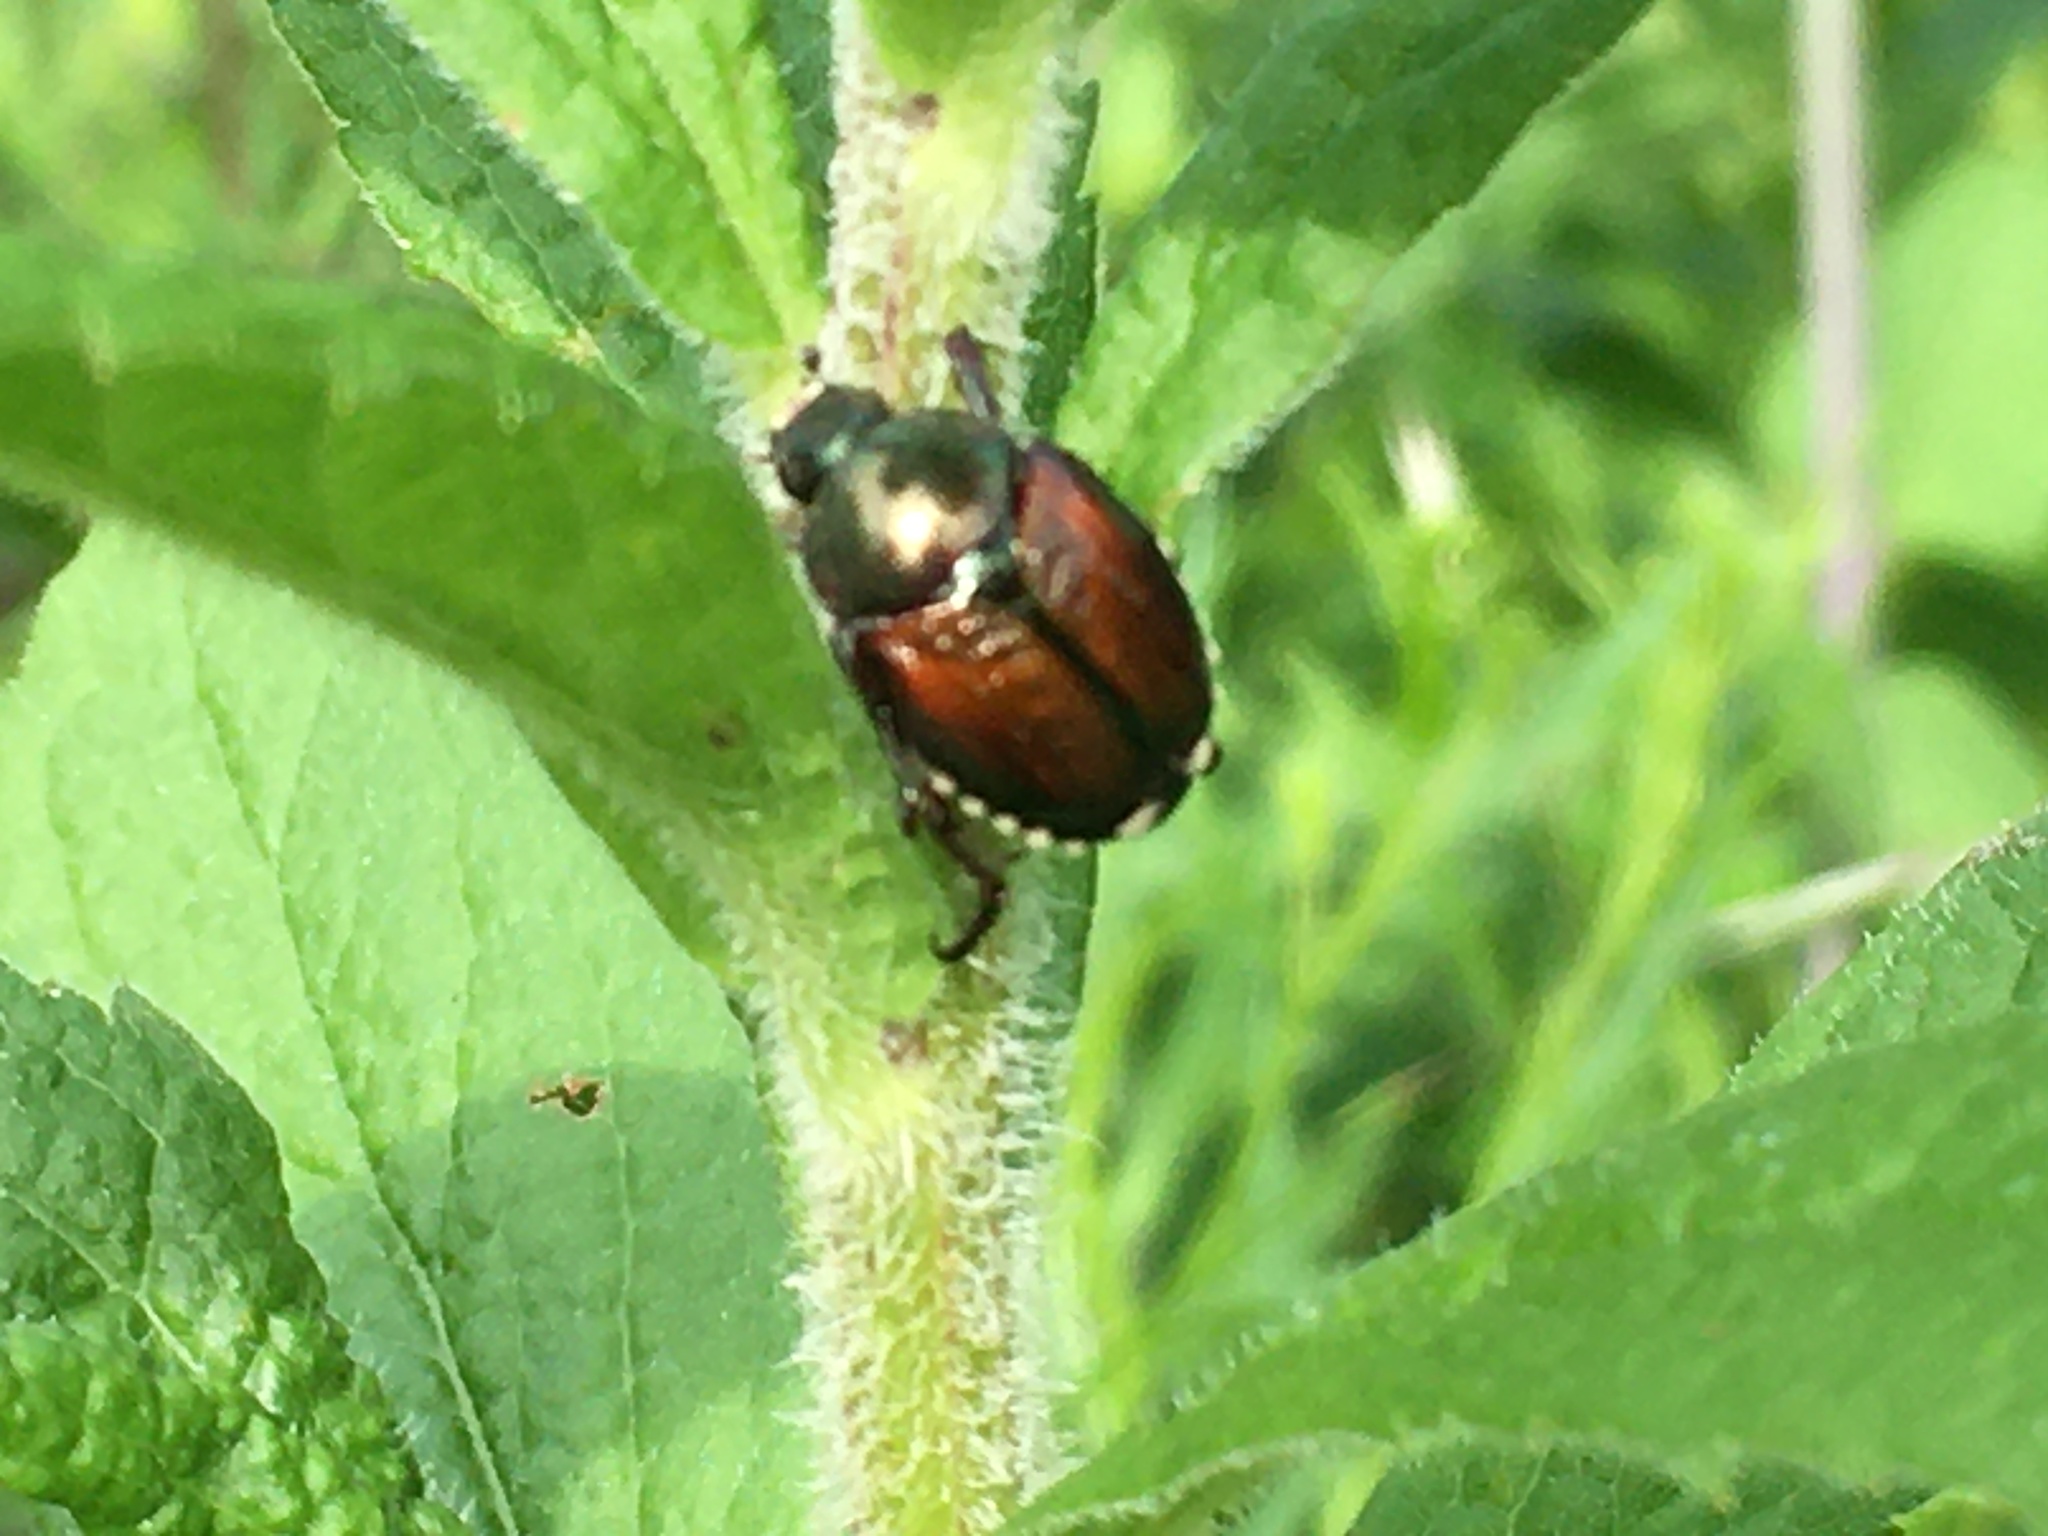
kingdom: Animalia
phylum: Arthropoda
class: Insecta
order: Coleoptera
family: Scarabaeidae
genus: Popillia
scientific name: Popillia japonica
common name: Japanese beetle
